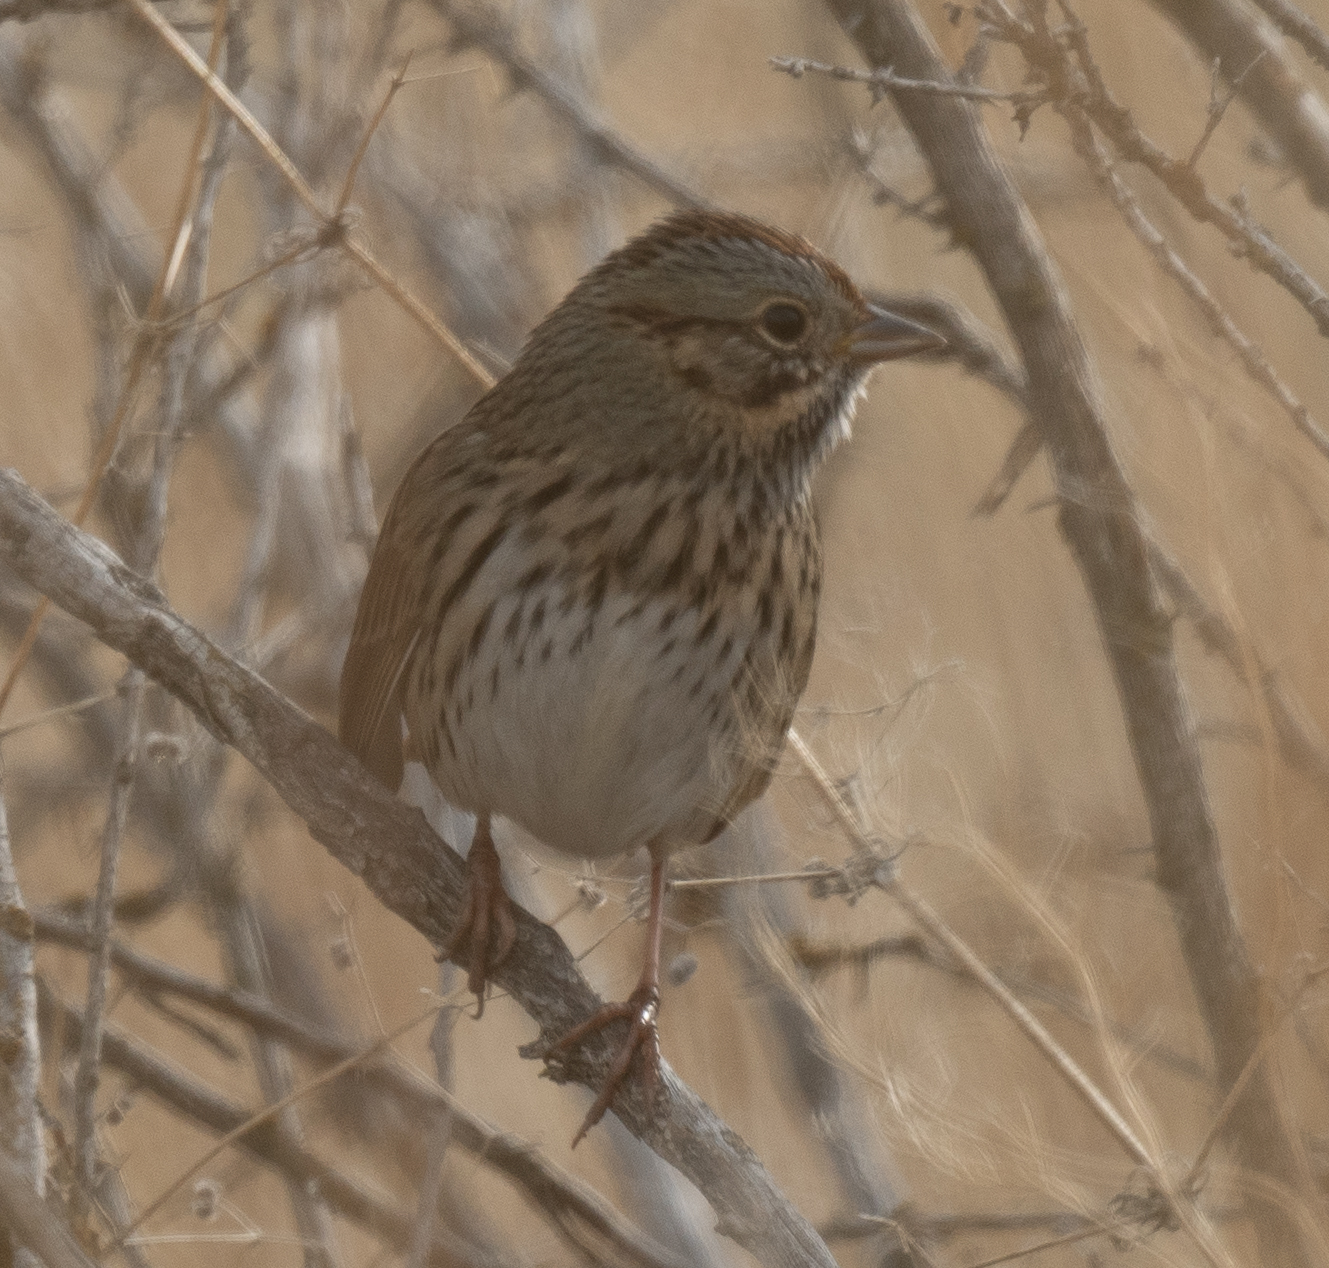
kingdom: Animalia
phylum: Chordata
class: Aves
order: Passeriformes
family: Passerellidae
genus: Melospiza
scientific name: Melospiza lincolnii
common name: Lincoln's sparrow
